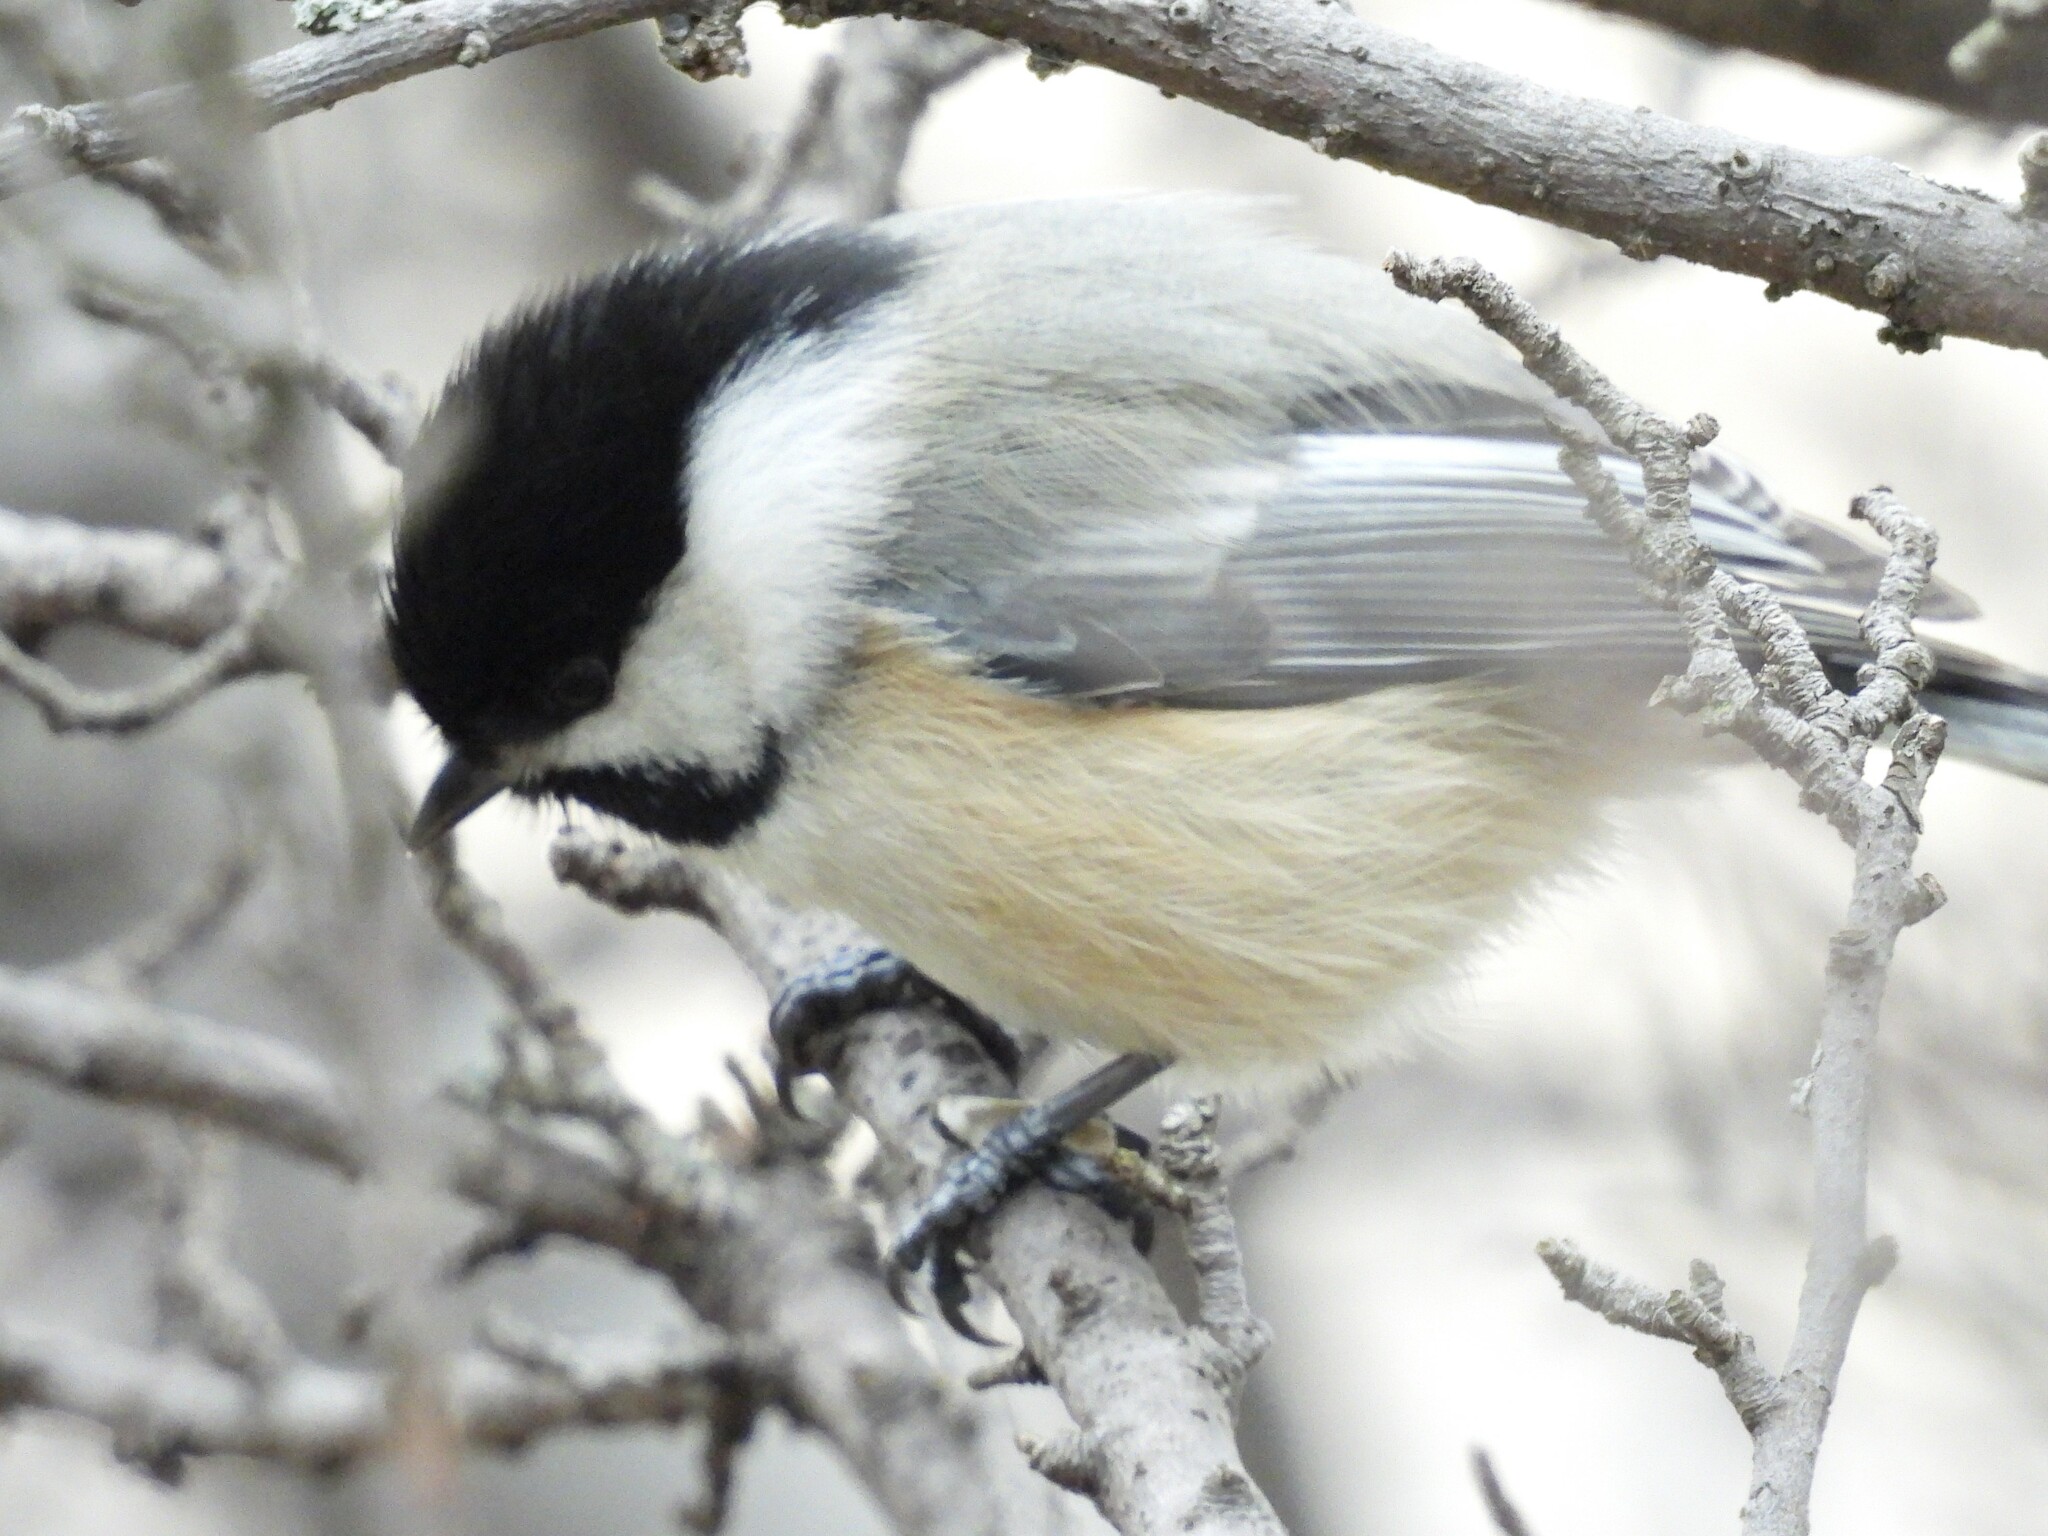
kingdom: Animalia
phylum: Chordata
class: Aves
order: Passeriformes
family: Paridae
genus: Poecile
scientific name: Poecile atricapillus
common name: Black-capped chickadee
